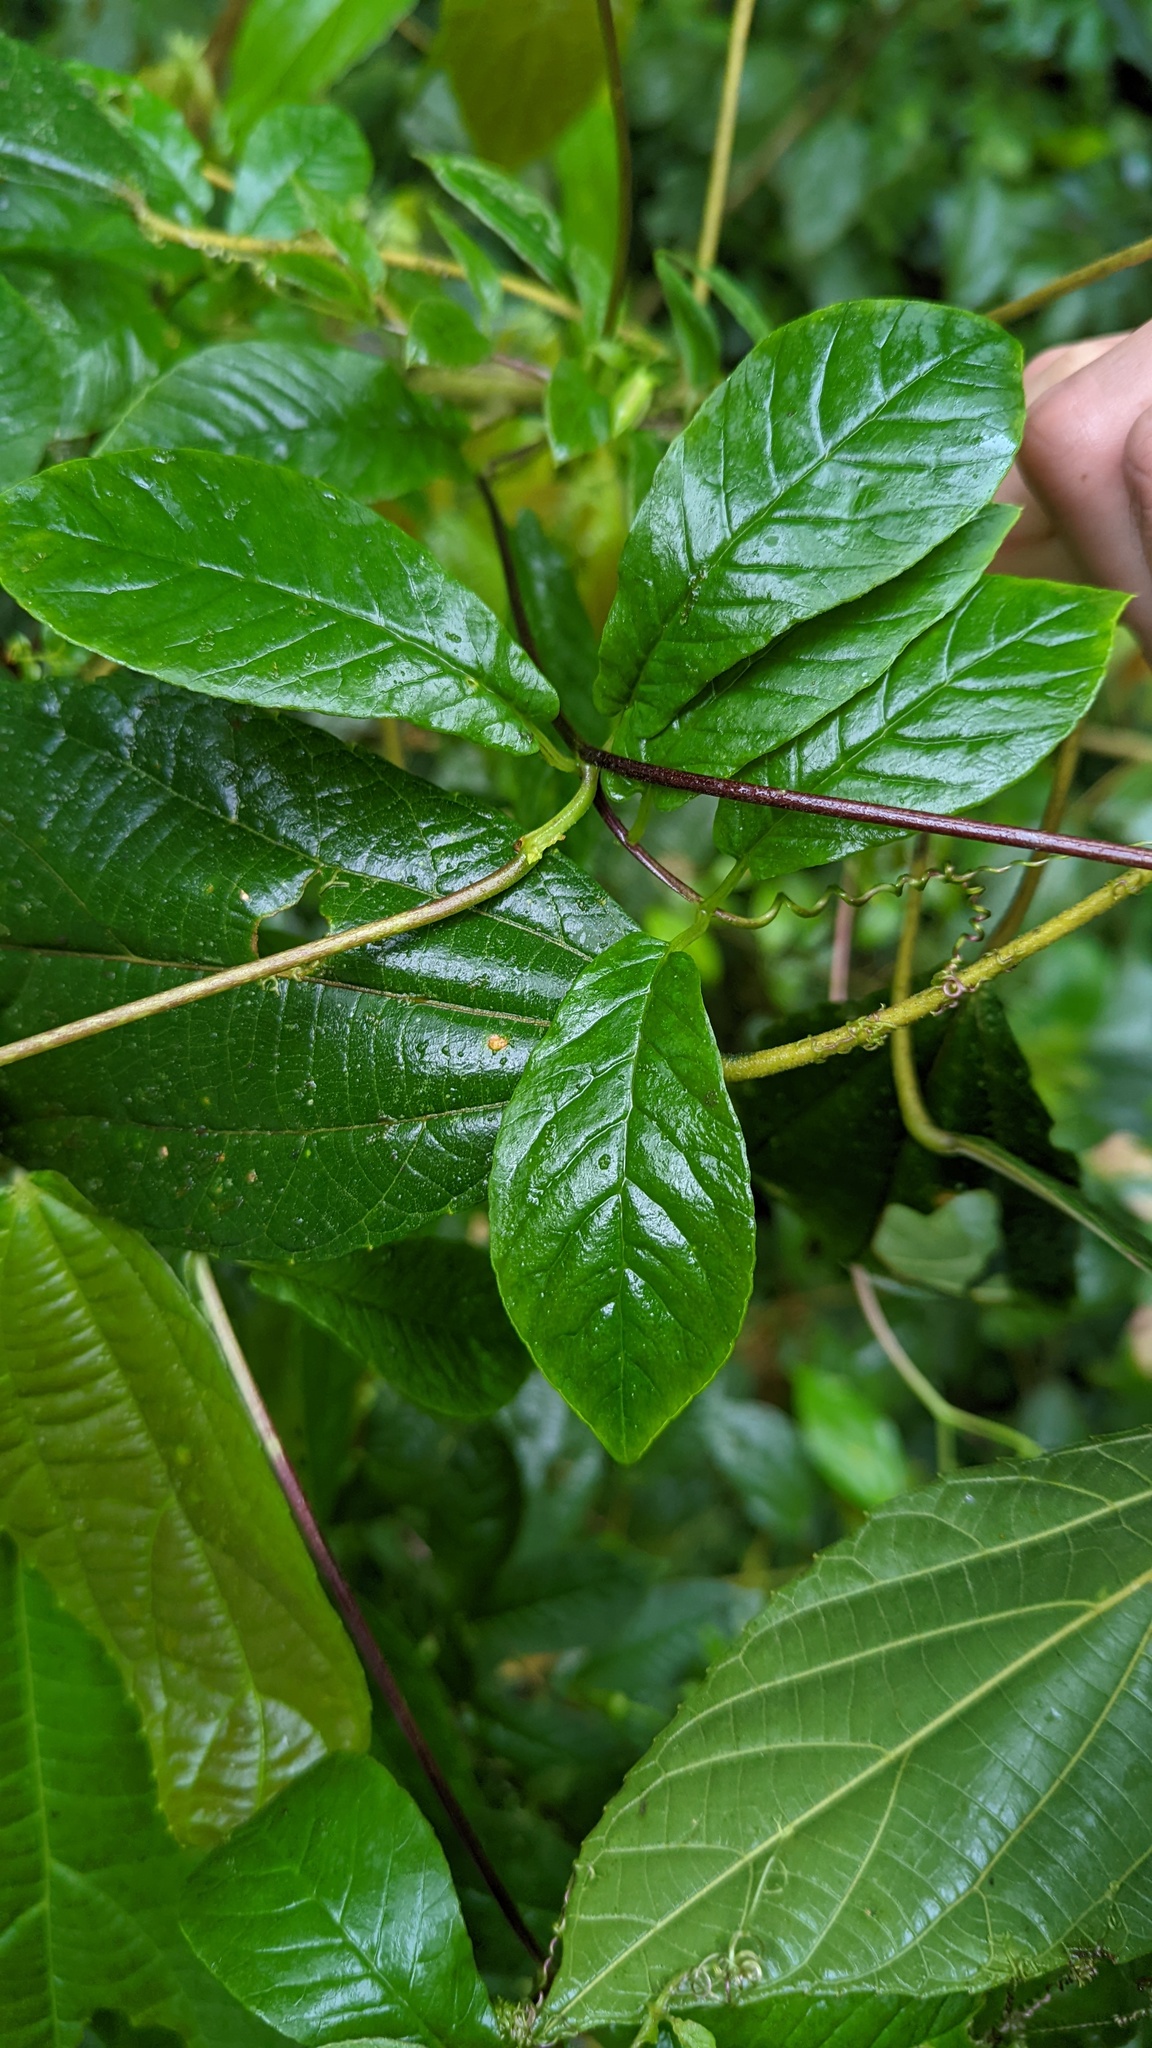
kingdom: Plantae
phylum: Tracheophyta
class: Magnoliopsida
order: Ericales
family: Polemoniaceae
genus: Cobaea
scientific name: Cobaea gracilis
